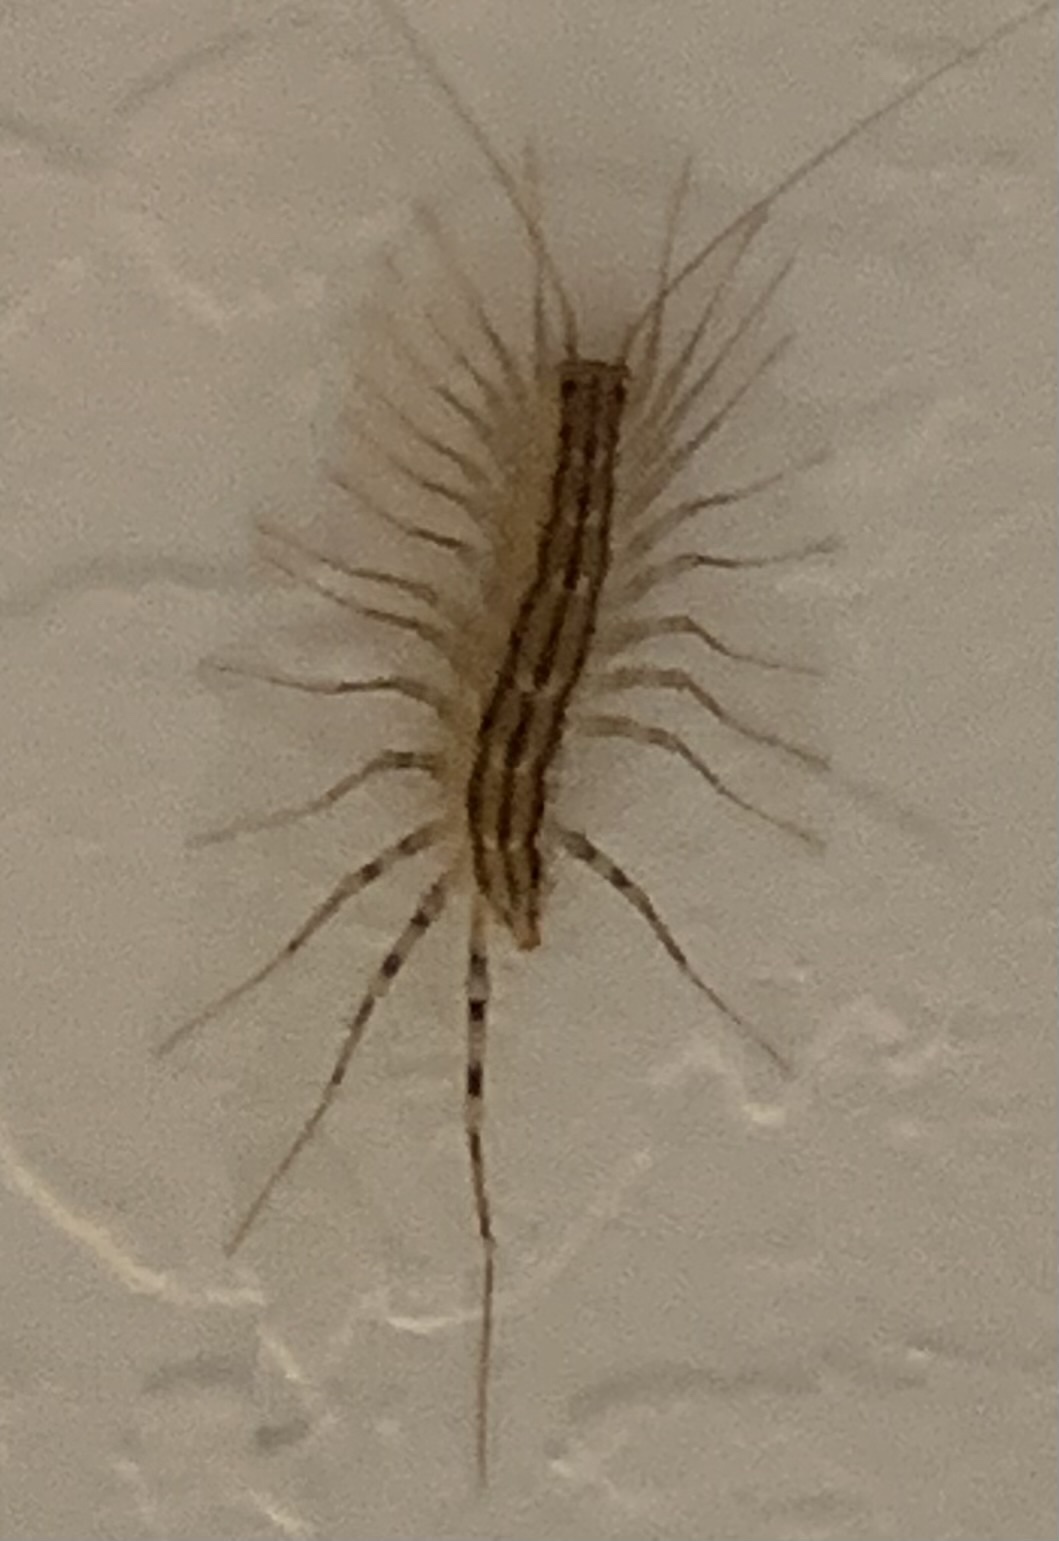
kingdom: Animalia
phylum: Arthropoda
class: Chilopoda
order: Scutigeromorpha
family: Scutigeridae
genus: Scutigera
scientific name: Scutigera coleoptrata
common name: House centipede
